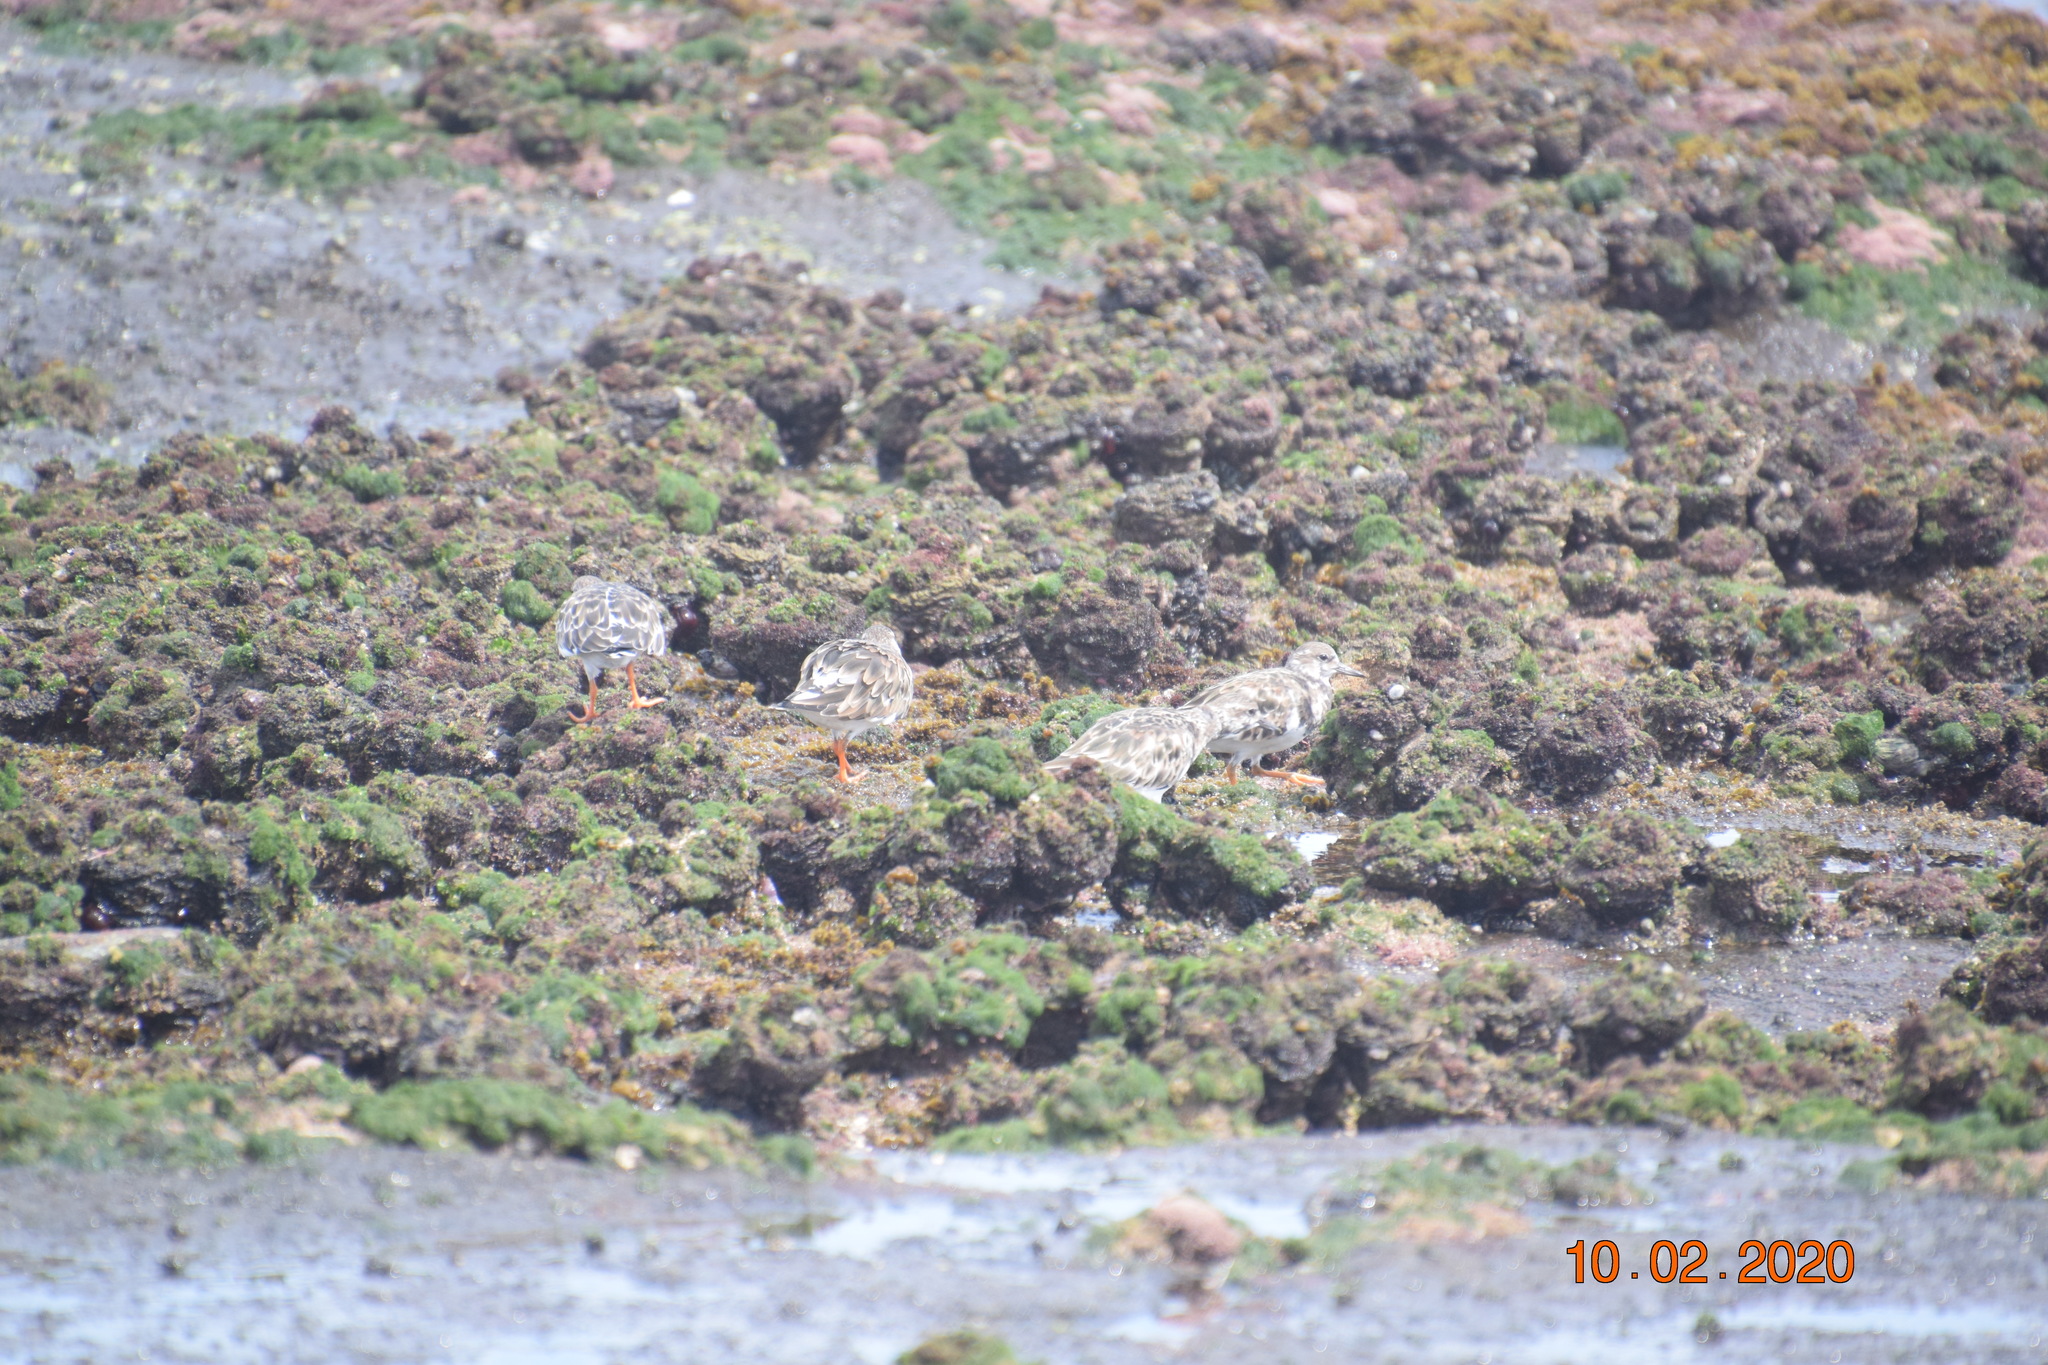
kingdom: Animalia
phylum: Chordata
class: Aves
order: Charadriiformes
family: Scolopacidae
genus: Arenaria
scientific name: Arenaria interpres
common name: Ruddy turnstone
